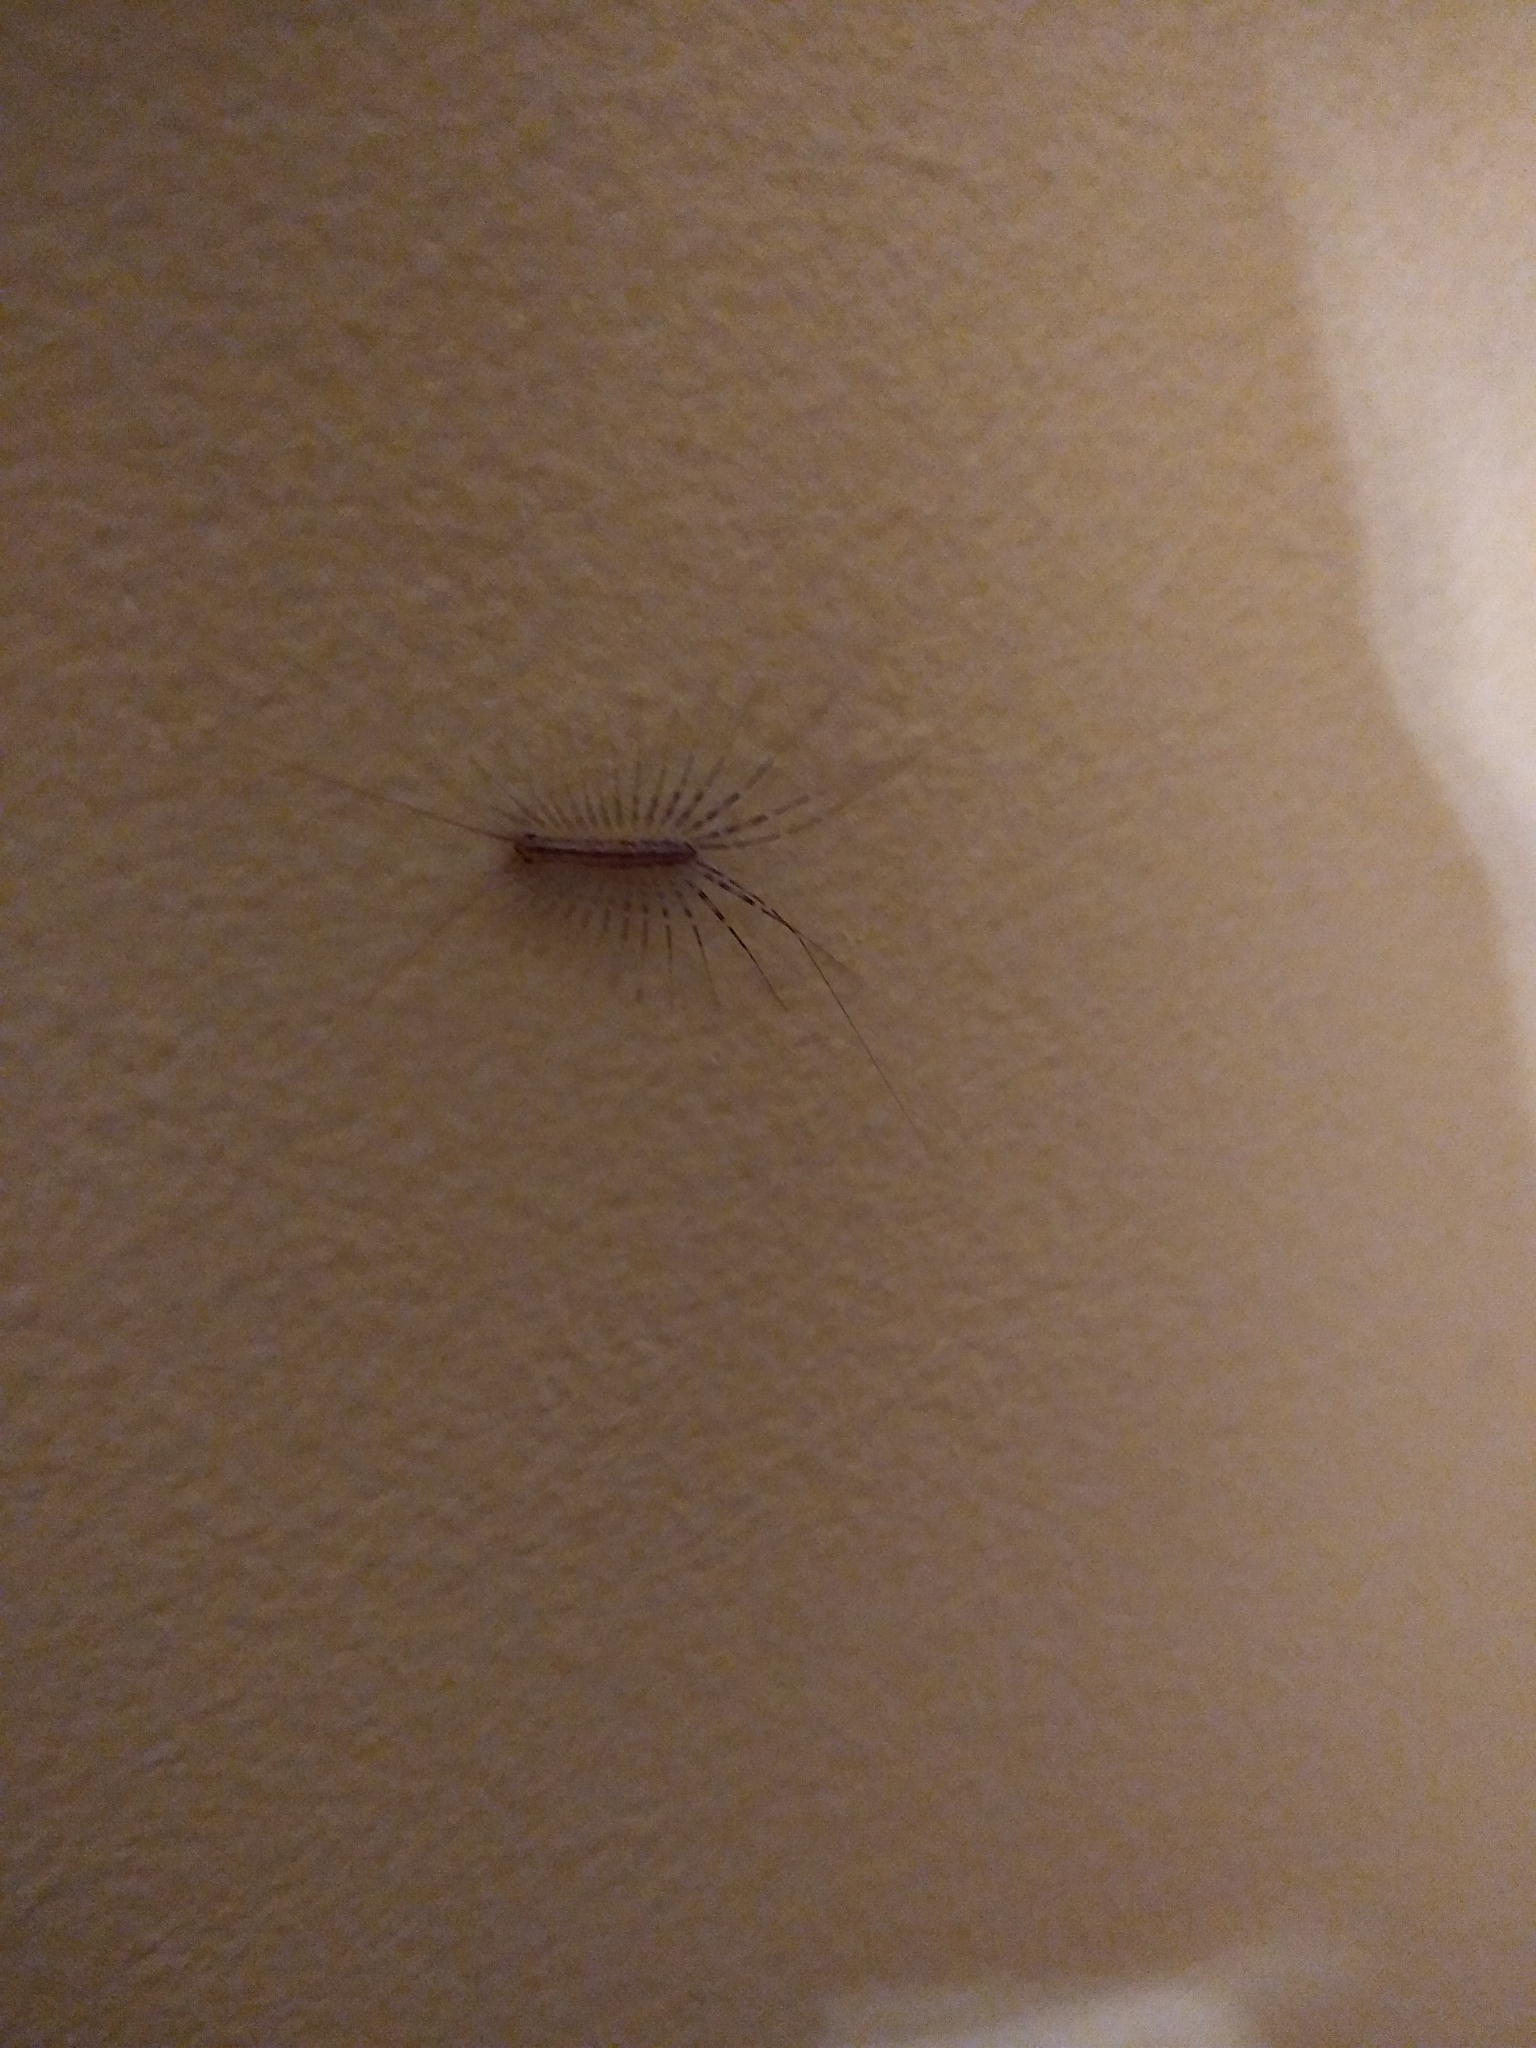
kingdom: Animalia
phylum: Arthropoda
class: Chilopoda
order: Scutigeromorpha
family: Scutigeridae
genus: Scutigera
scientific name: Scutigera coleoptrata
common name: House centipede
